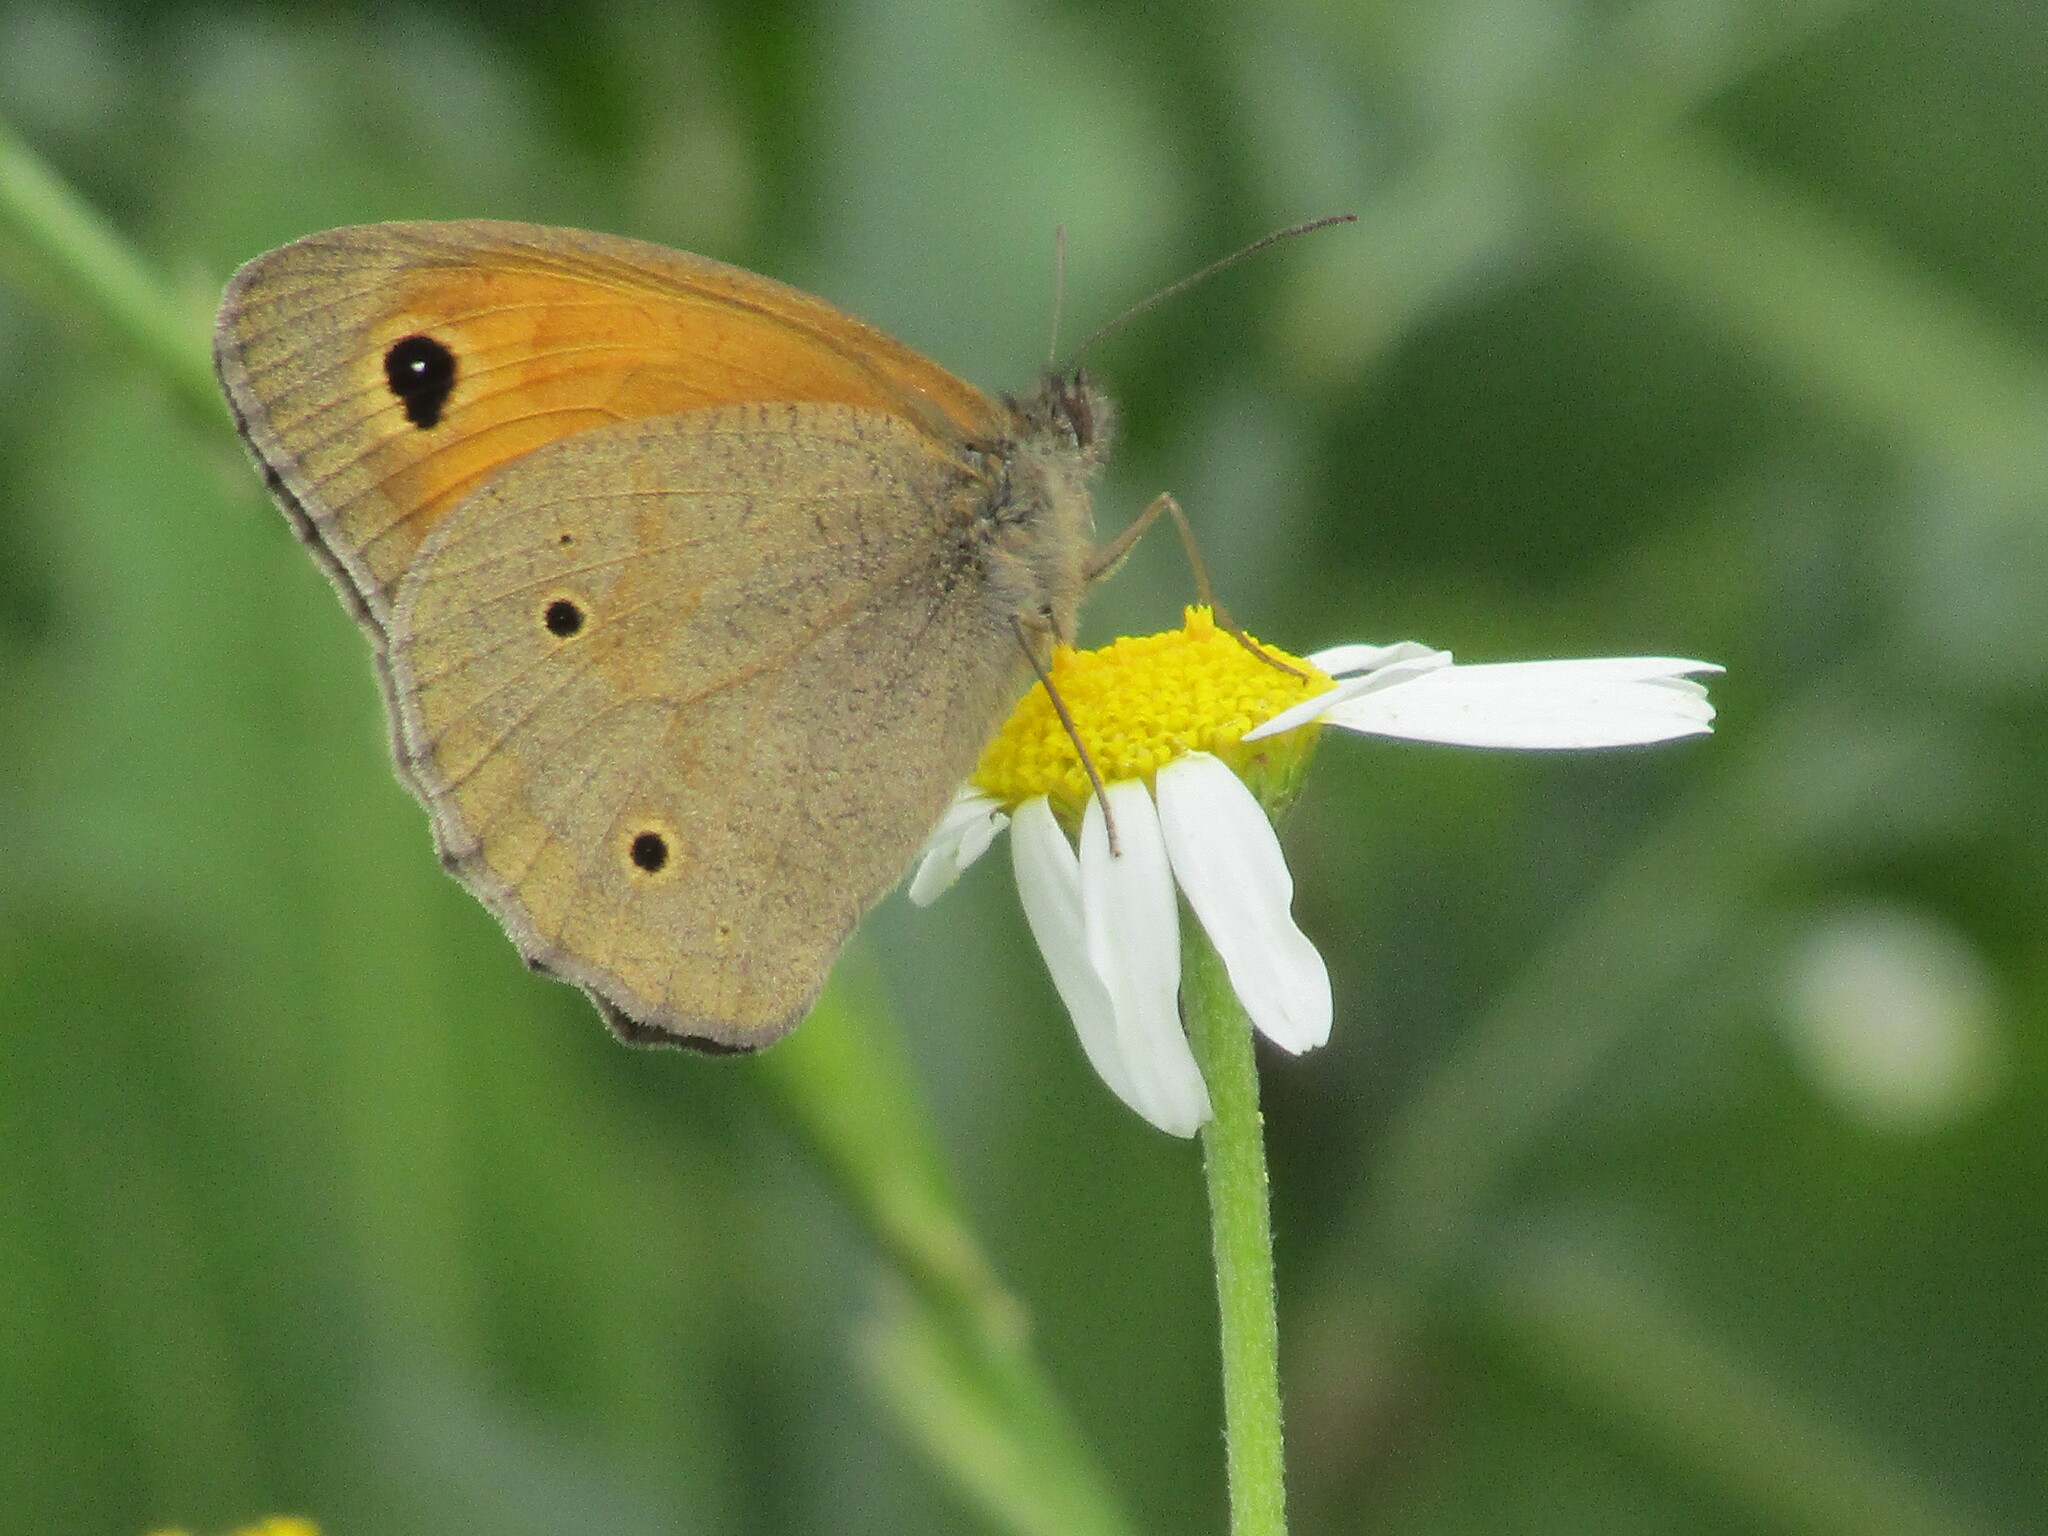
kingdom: Animalia
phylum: Arthropoda
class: Insecta
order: Lepidoptera
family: Nymphalidae
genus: Maniola
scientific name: Maniola jurtina
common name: Meadow brown
